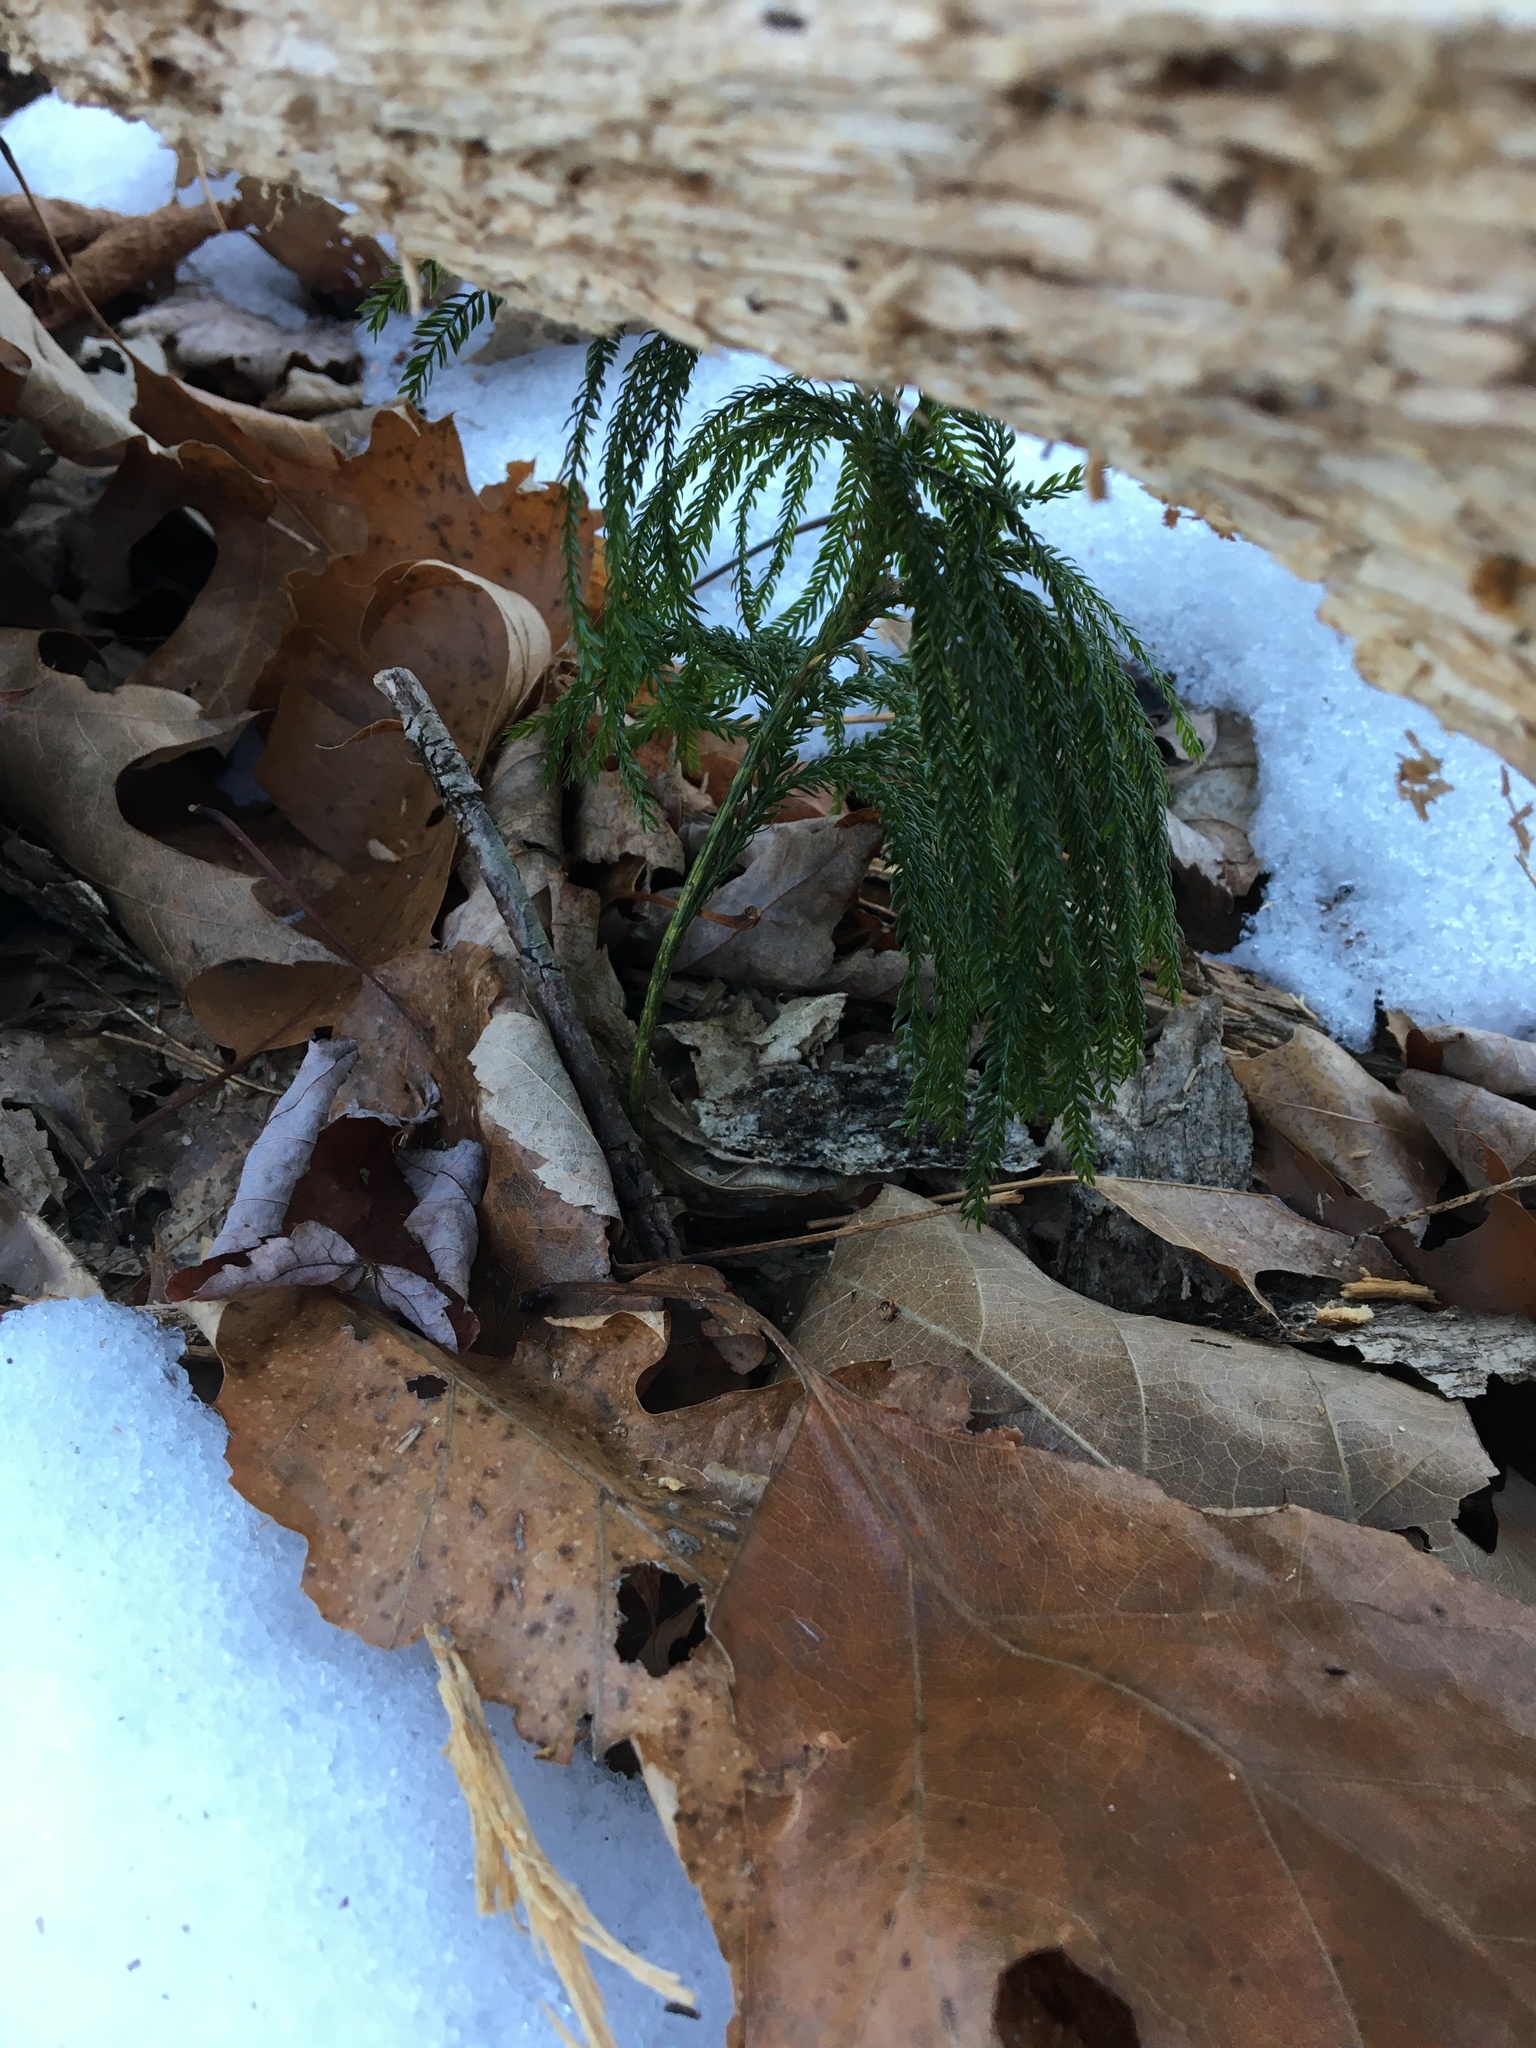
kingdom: Plantae
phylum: Tracheophyta
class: Lycopodiopsida
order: Lycopodiales
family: Lycopodiaceae
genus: Dendrolycopodium
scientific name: Dendrolycopodium obscurum
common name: Common ground-pine
